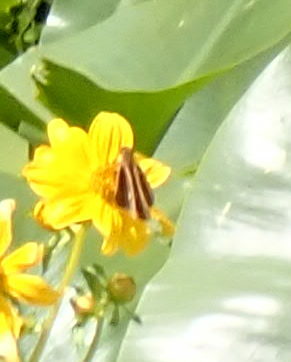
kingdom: Animalia
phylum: Arthropoda
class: Insecta
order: Lepidoptera
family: Hesperiidae
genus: Panoquina
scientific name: Panoquina ocola
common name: Ocola skipper
